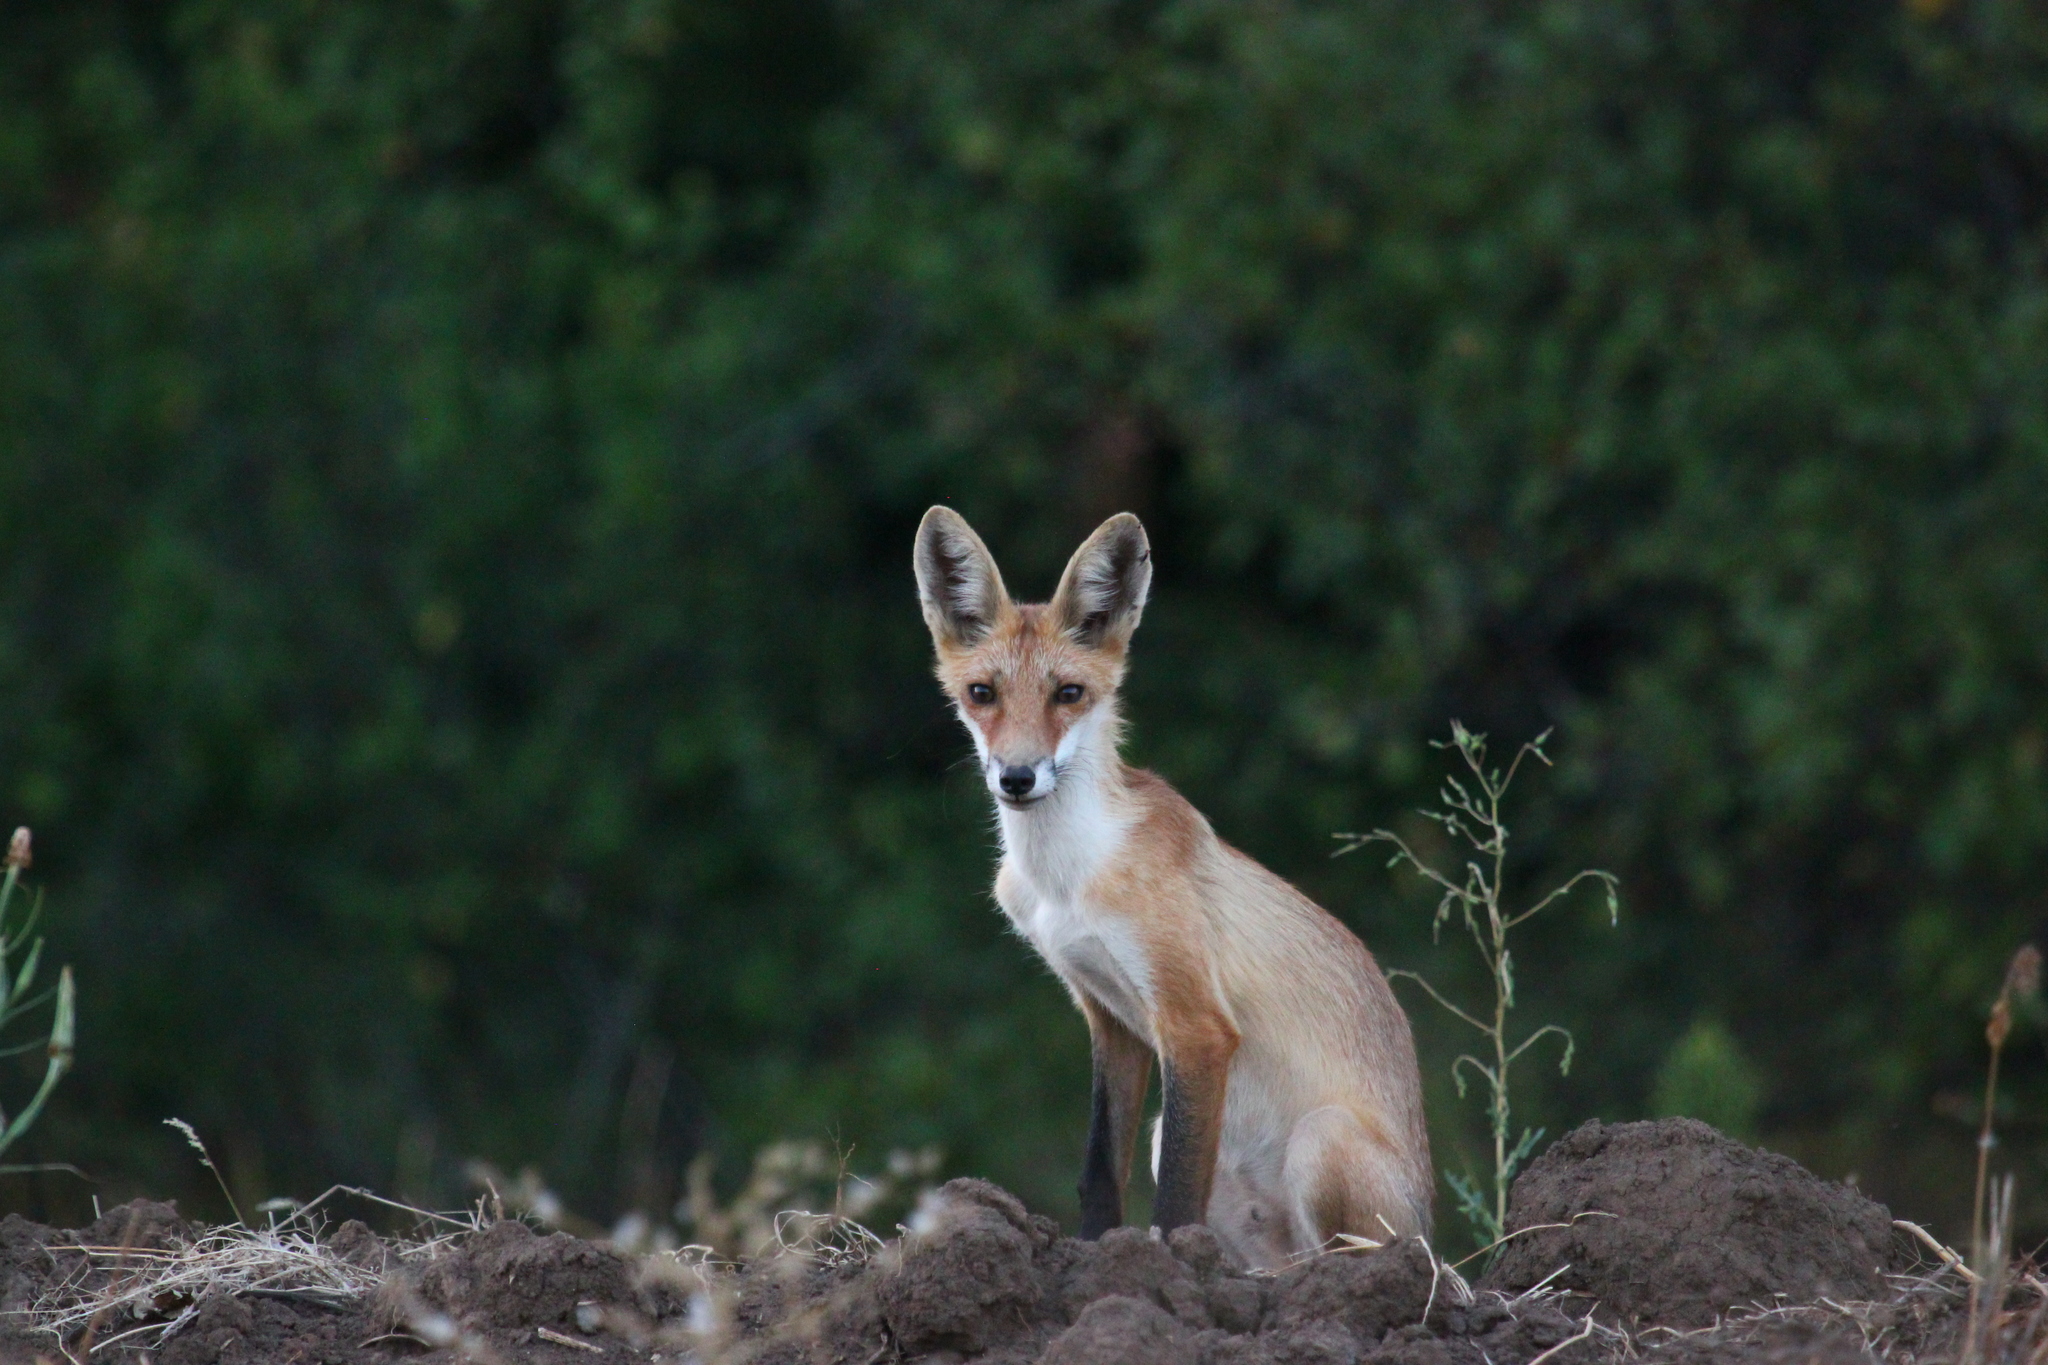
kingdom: Animalia
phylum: Chordata
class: Mammalia
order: Carnivora
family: Canidae
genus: Vulpes
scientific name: Vulpes vulpes
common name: Red fox
